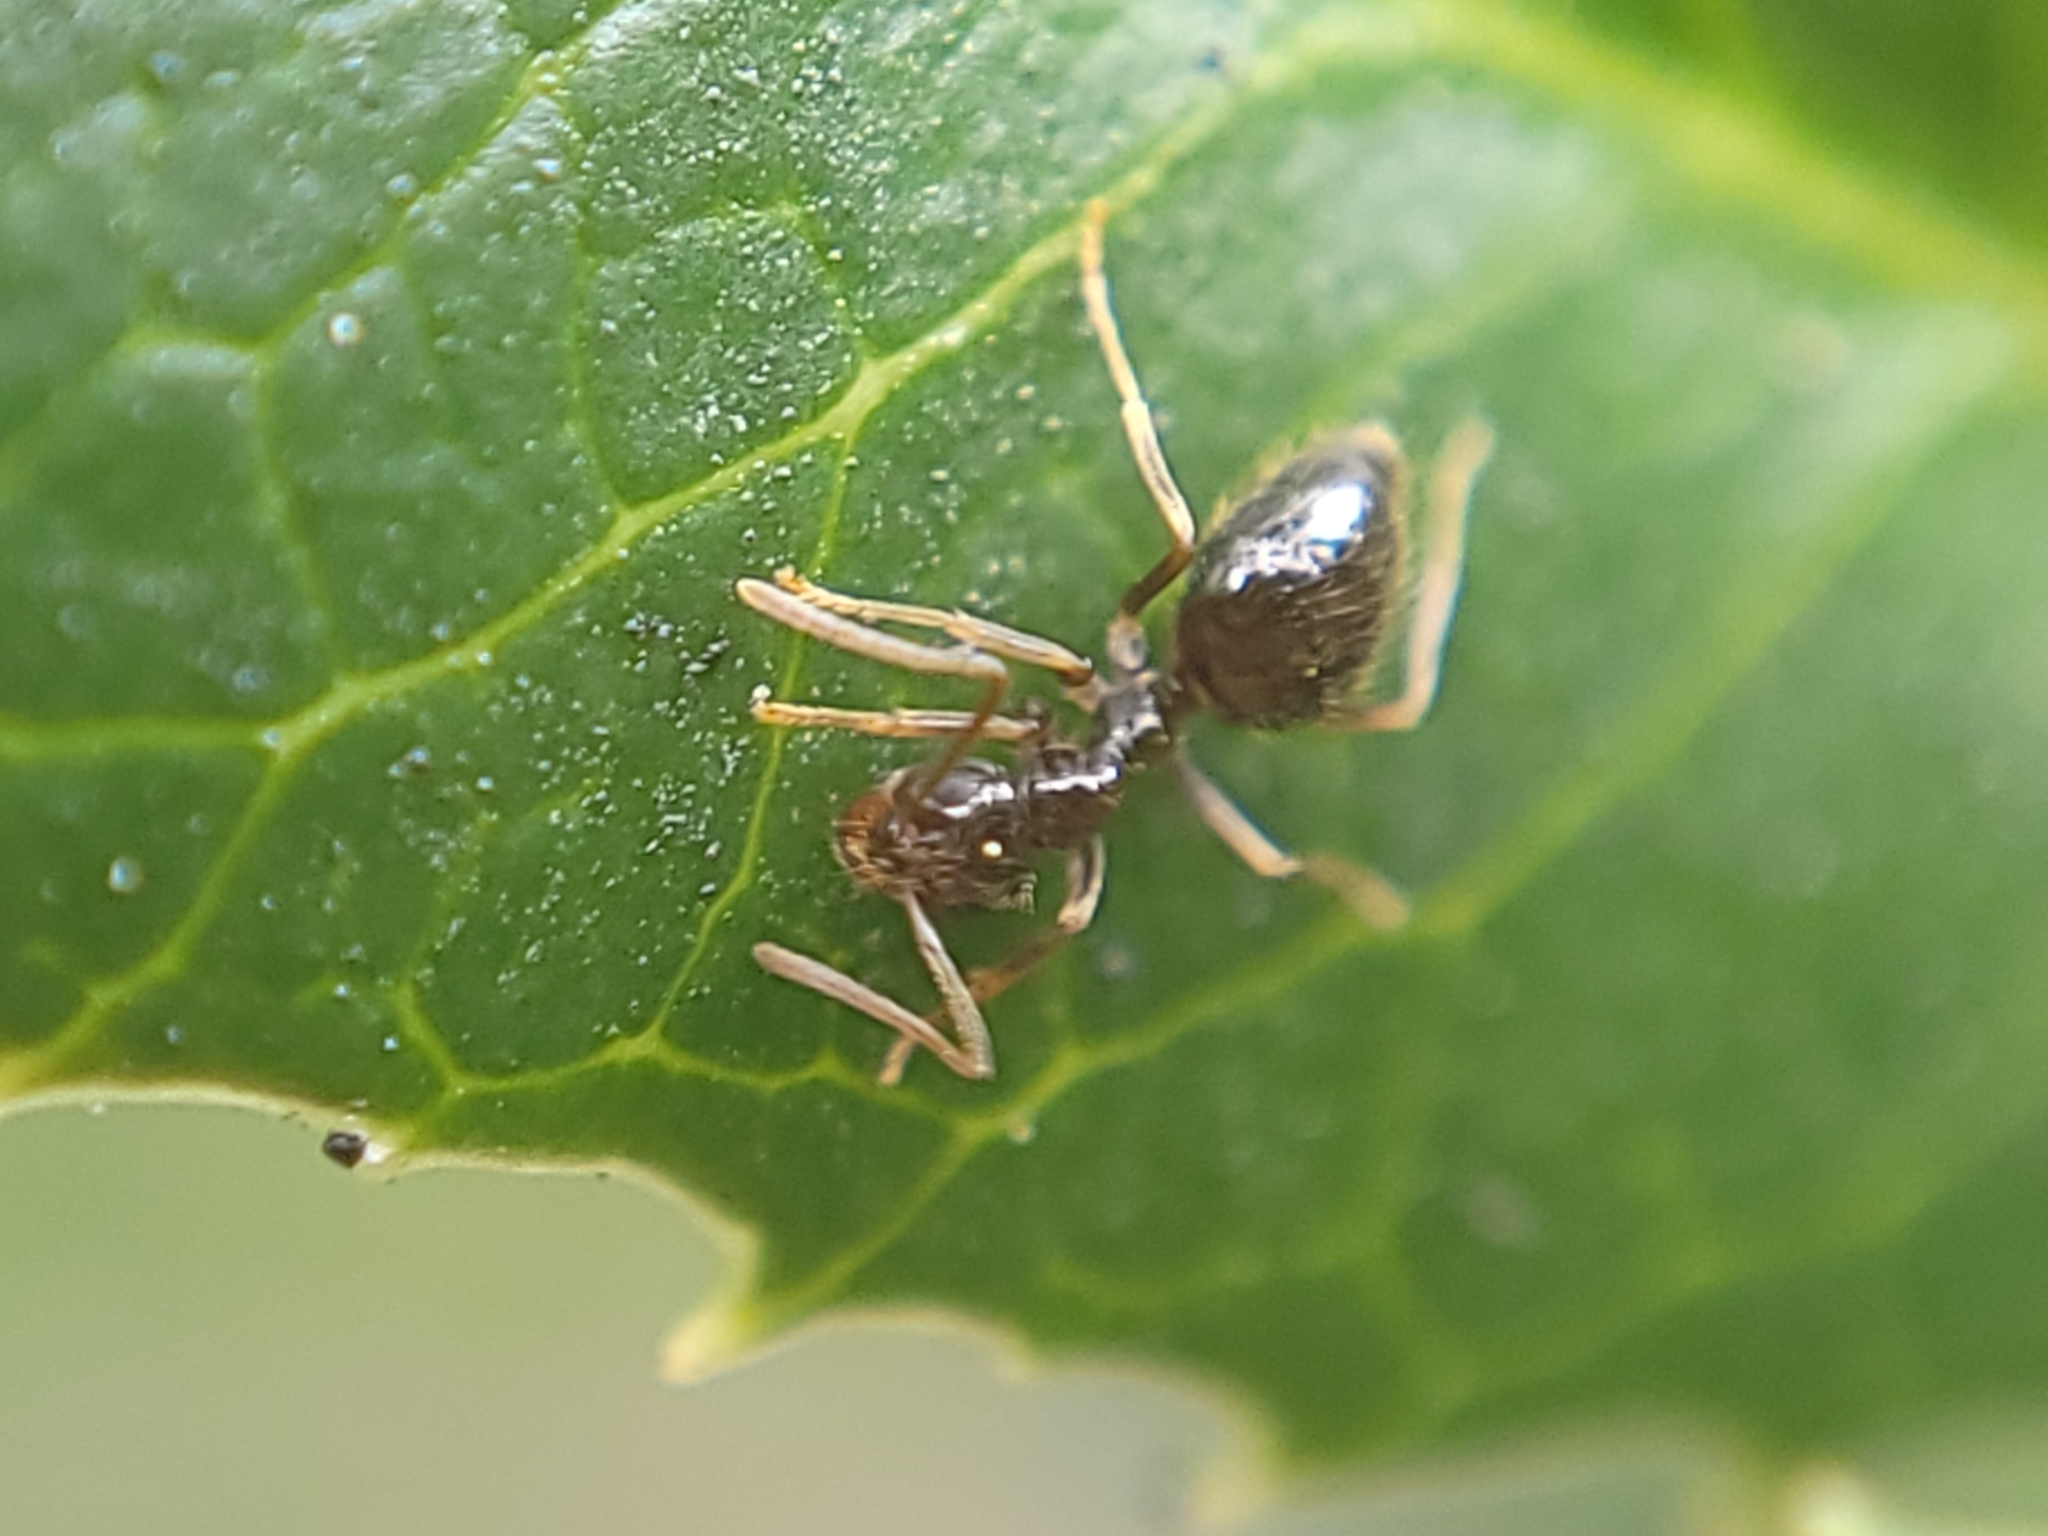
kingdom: Animalia
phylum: Arthropoda
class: Insecta
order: Hymenoptera
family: Formicidae
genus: Prenolepis
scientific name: Prenolepis imparis
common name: Small honey ant
